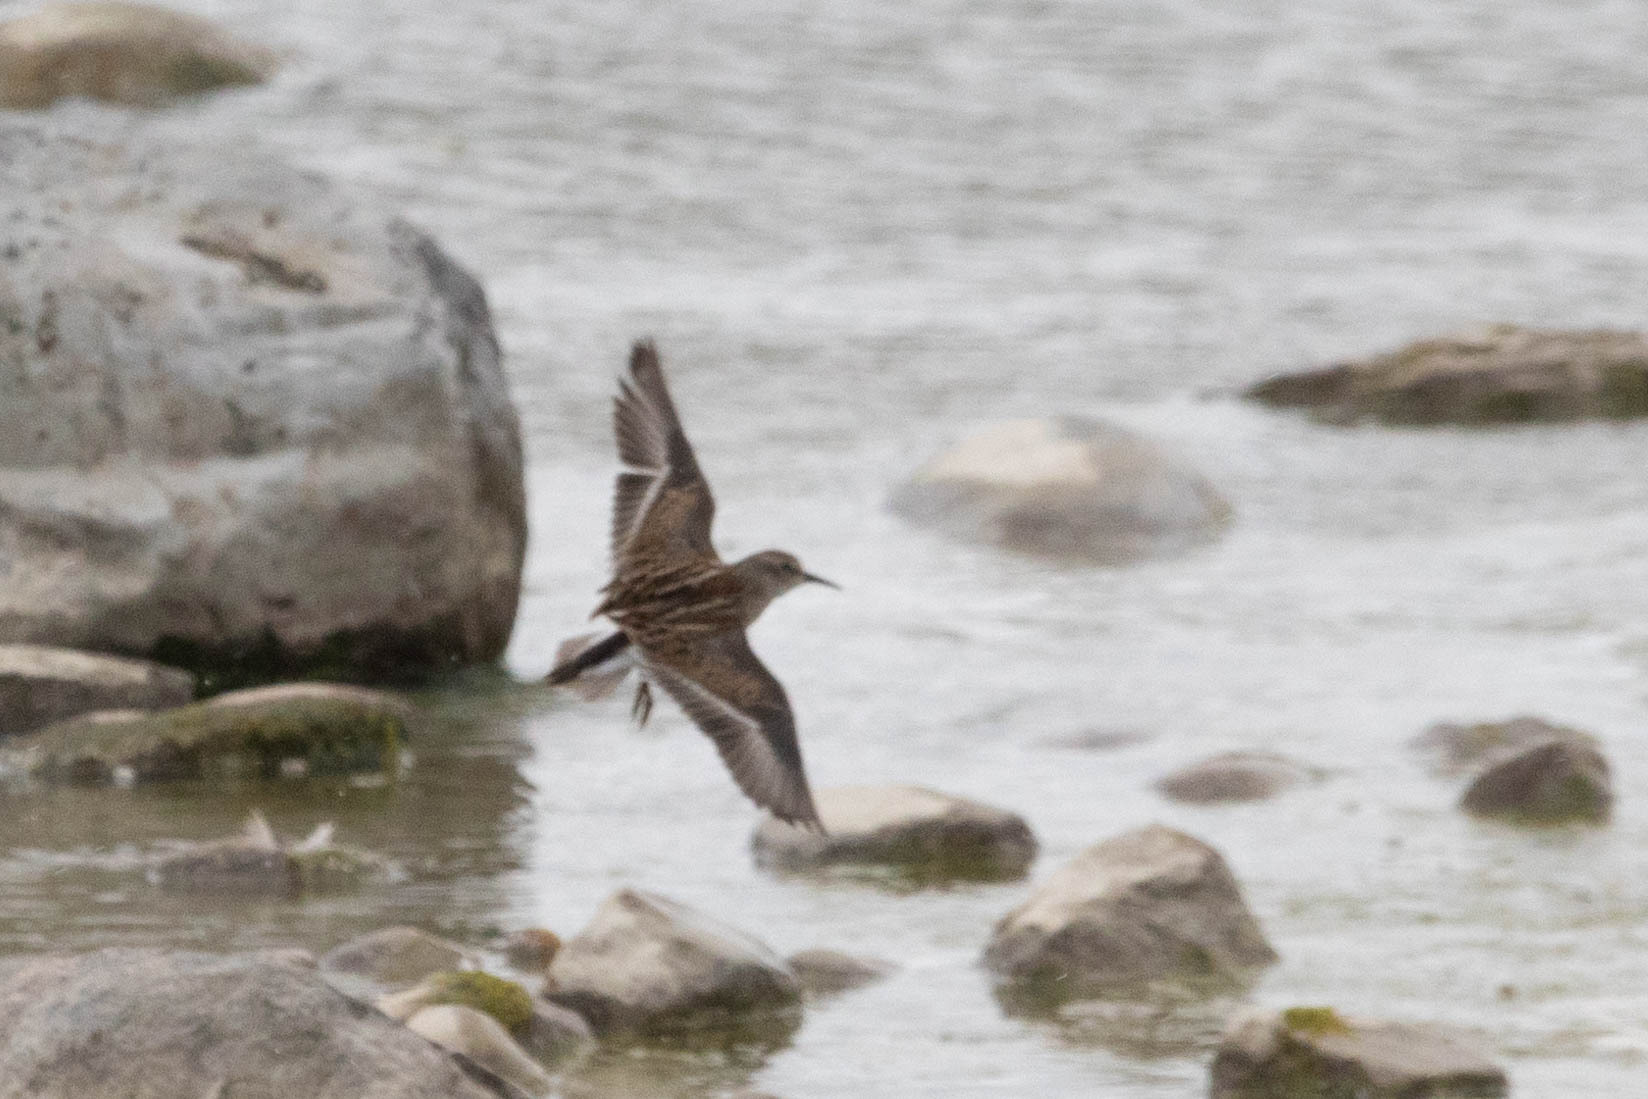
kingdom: Animalia
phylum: Chordata
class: Aves
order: Charadriiformes
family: Scolopacidae
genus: Calidris
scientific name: Calidris minutilla
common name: Least sandpiper
